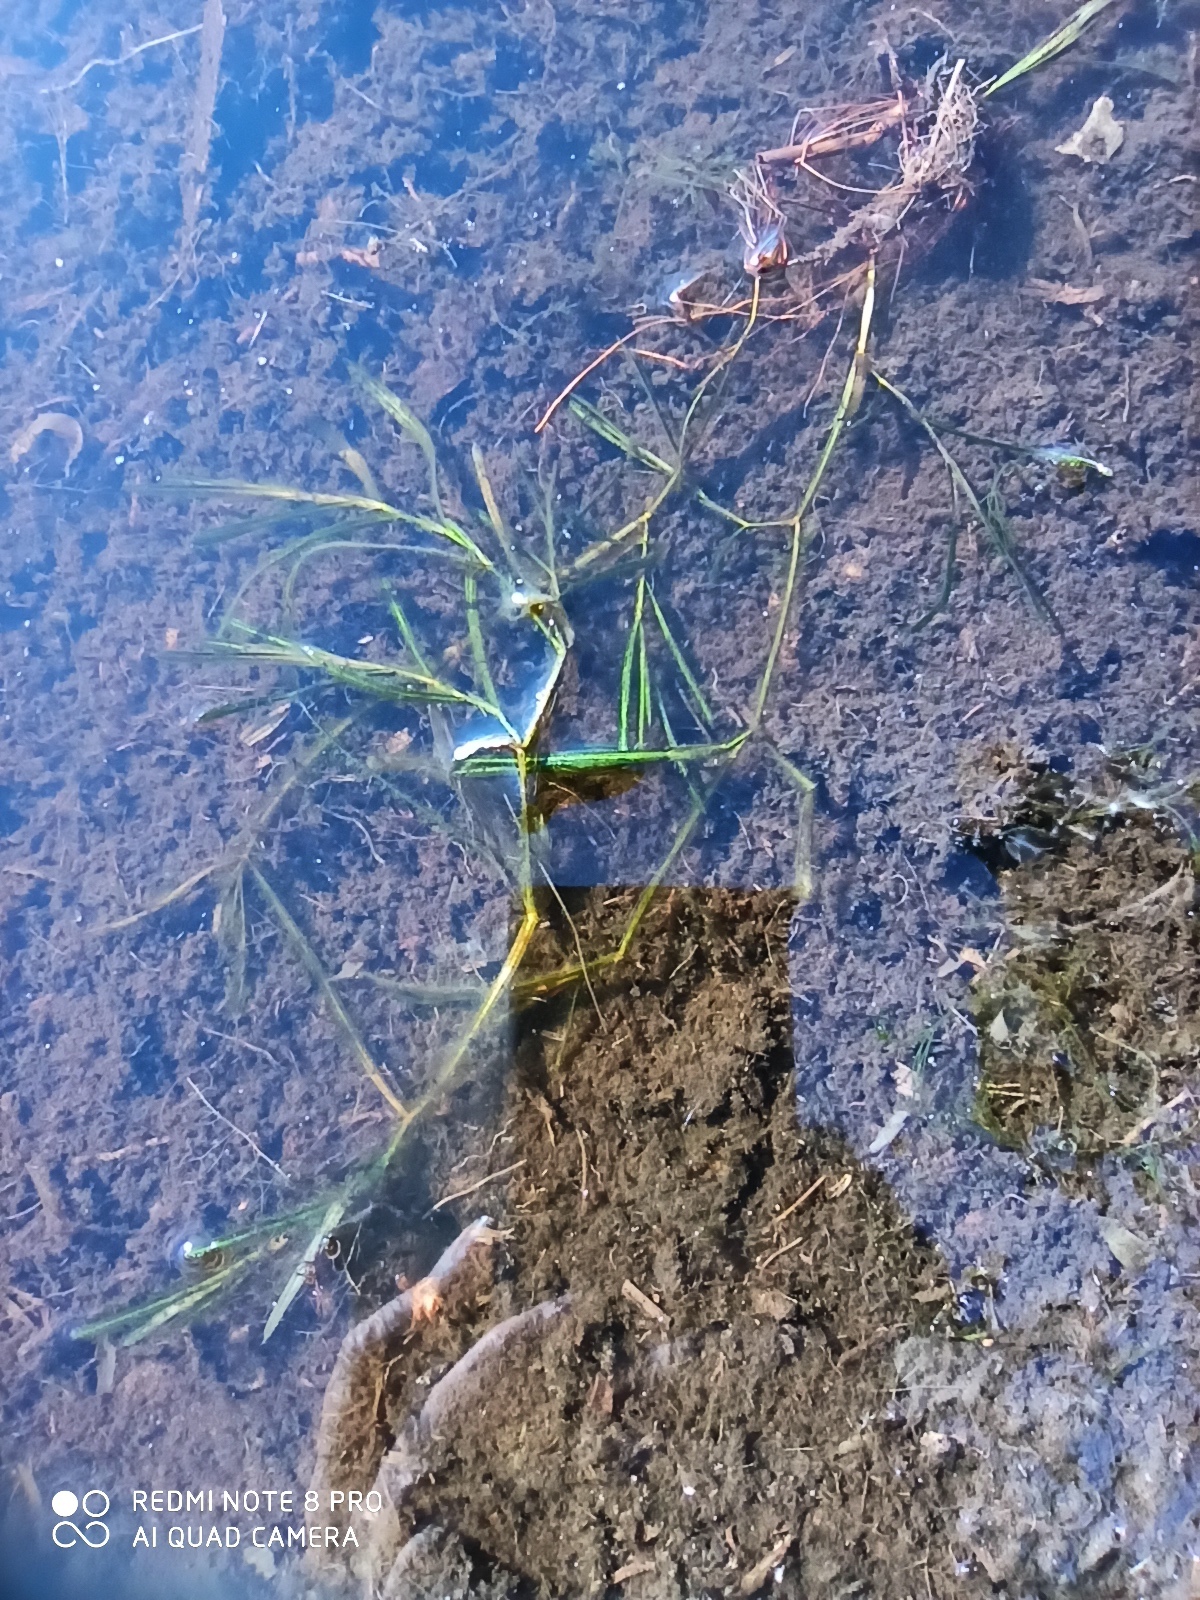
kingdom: Plantae
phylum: Tracheophyta
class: Liliopsida
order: Alismatales
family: Potamogetonaceae
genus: Potamogeton
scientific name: Potamogeton compressus
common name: Grass-wrack pondweed
